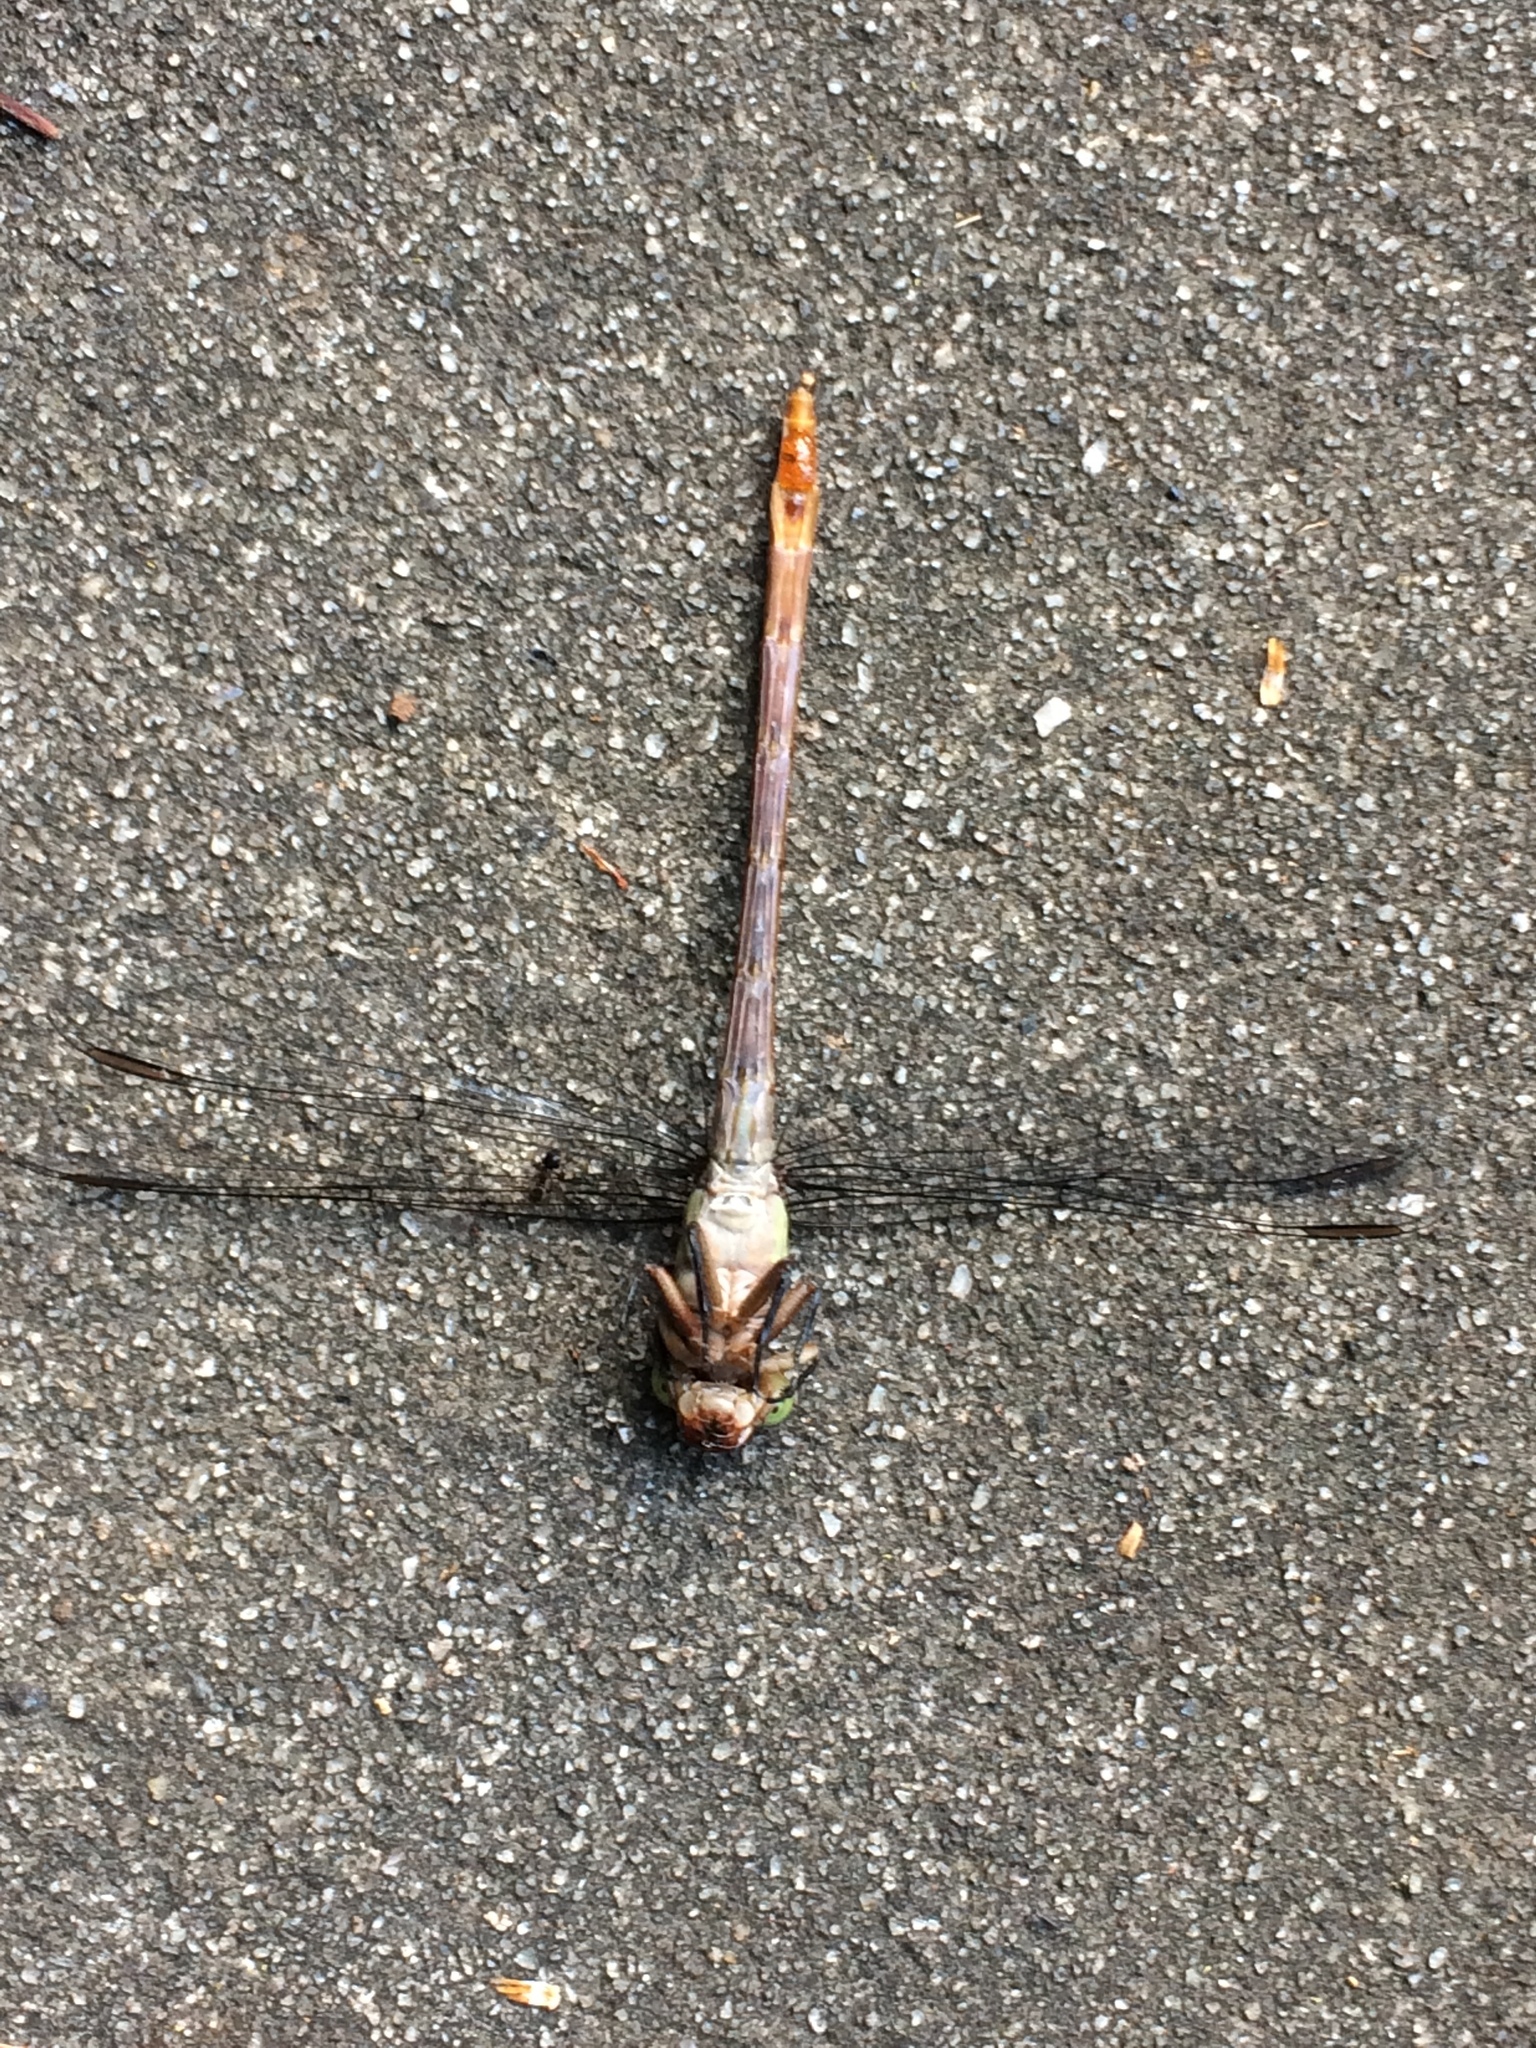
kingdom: Animalia
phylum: Arthropoda
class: Insecta
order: Odonata
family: Gomphidae
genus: Stylurus
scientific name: Stylurus plagiatus
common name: Russet-tipped clubtail
